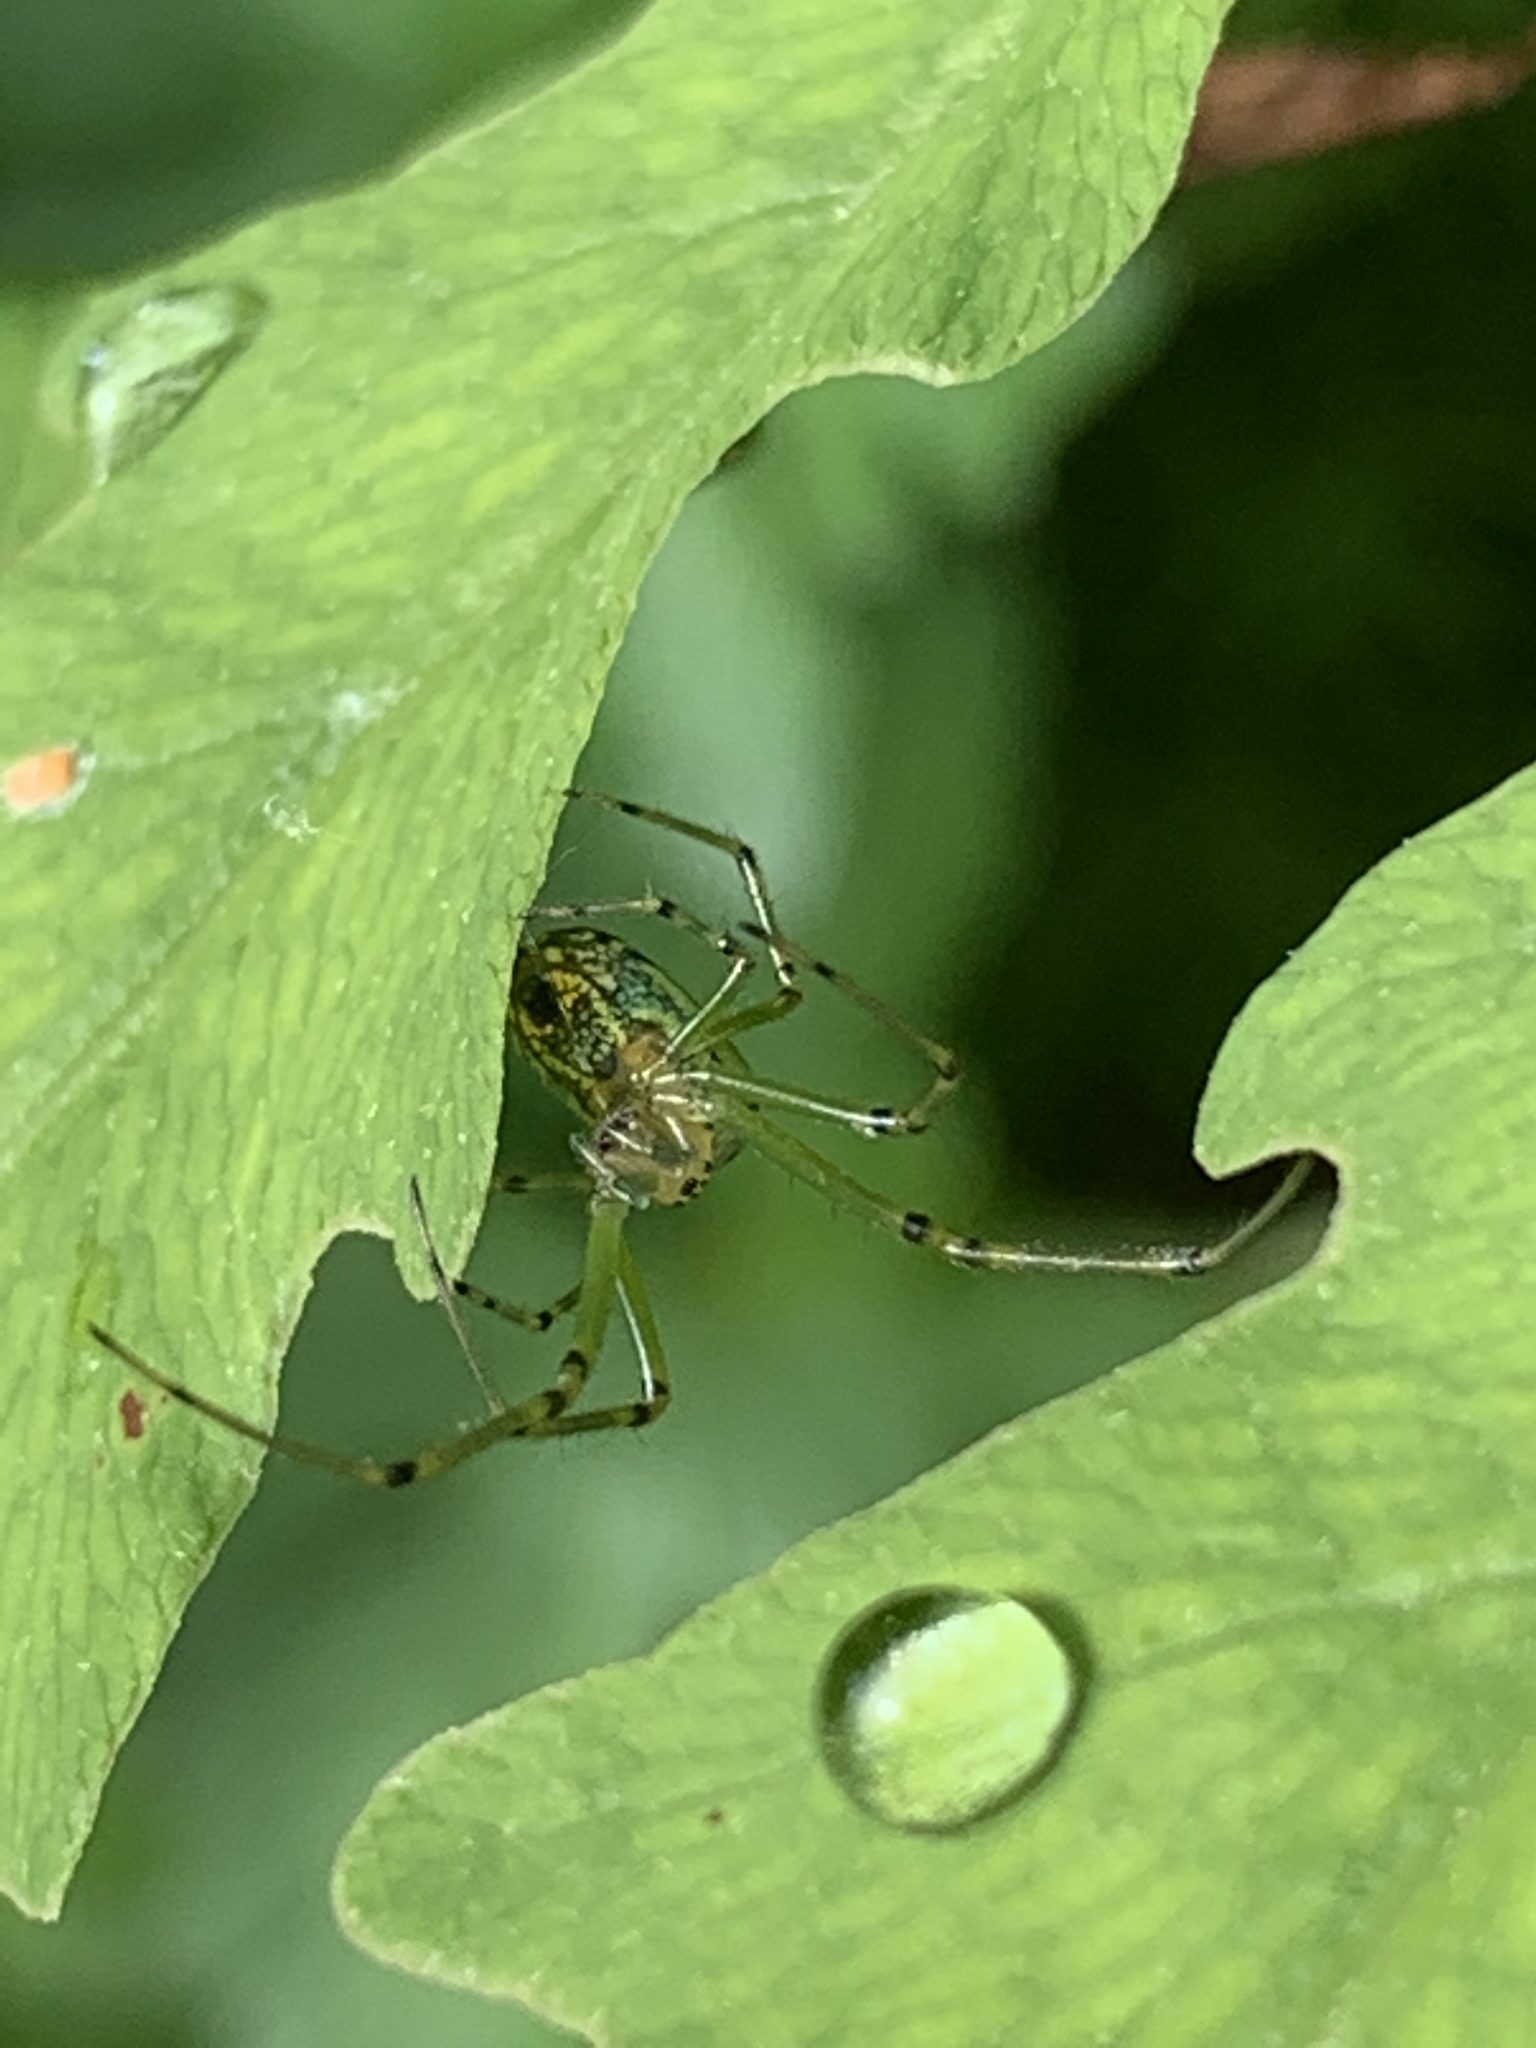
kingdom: Animalia
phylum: Arthropoda
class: Arachnida
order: Araneae
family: Tetragnathidae
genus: Leucauge
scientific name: Leucauge venusta
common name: Longjawed orb weavers
